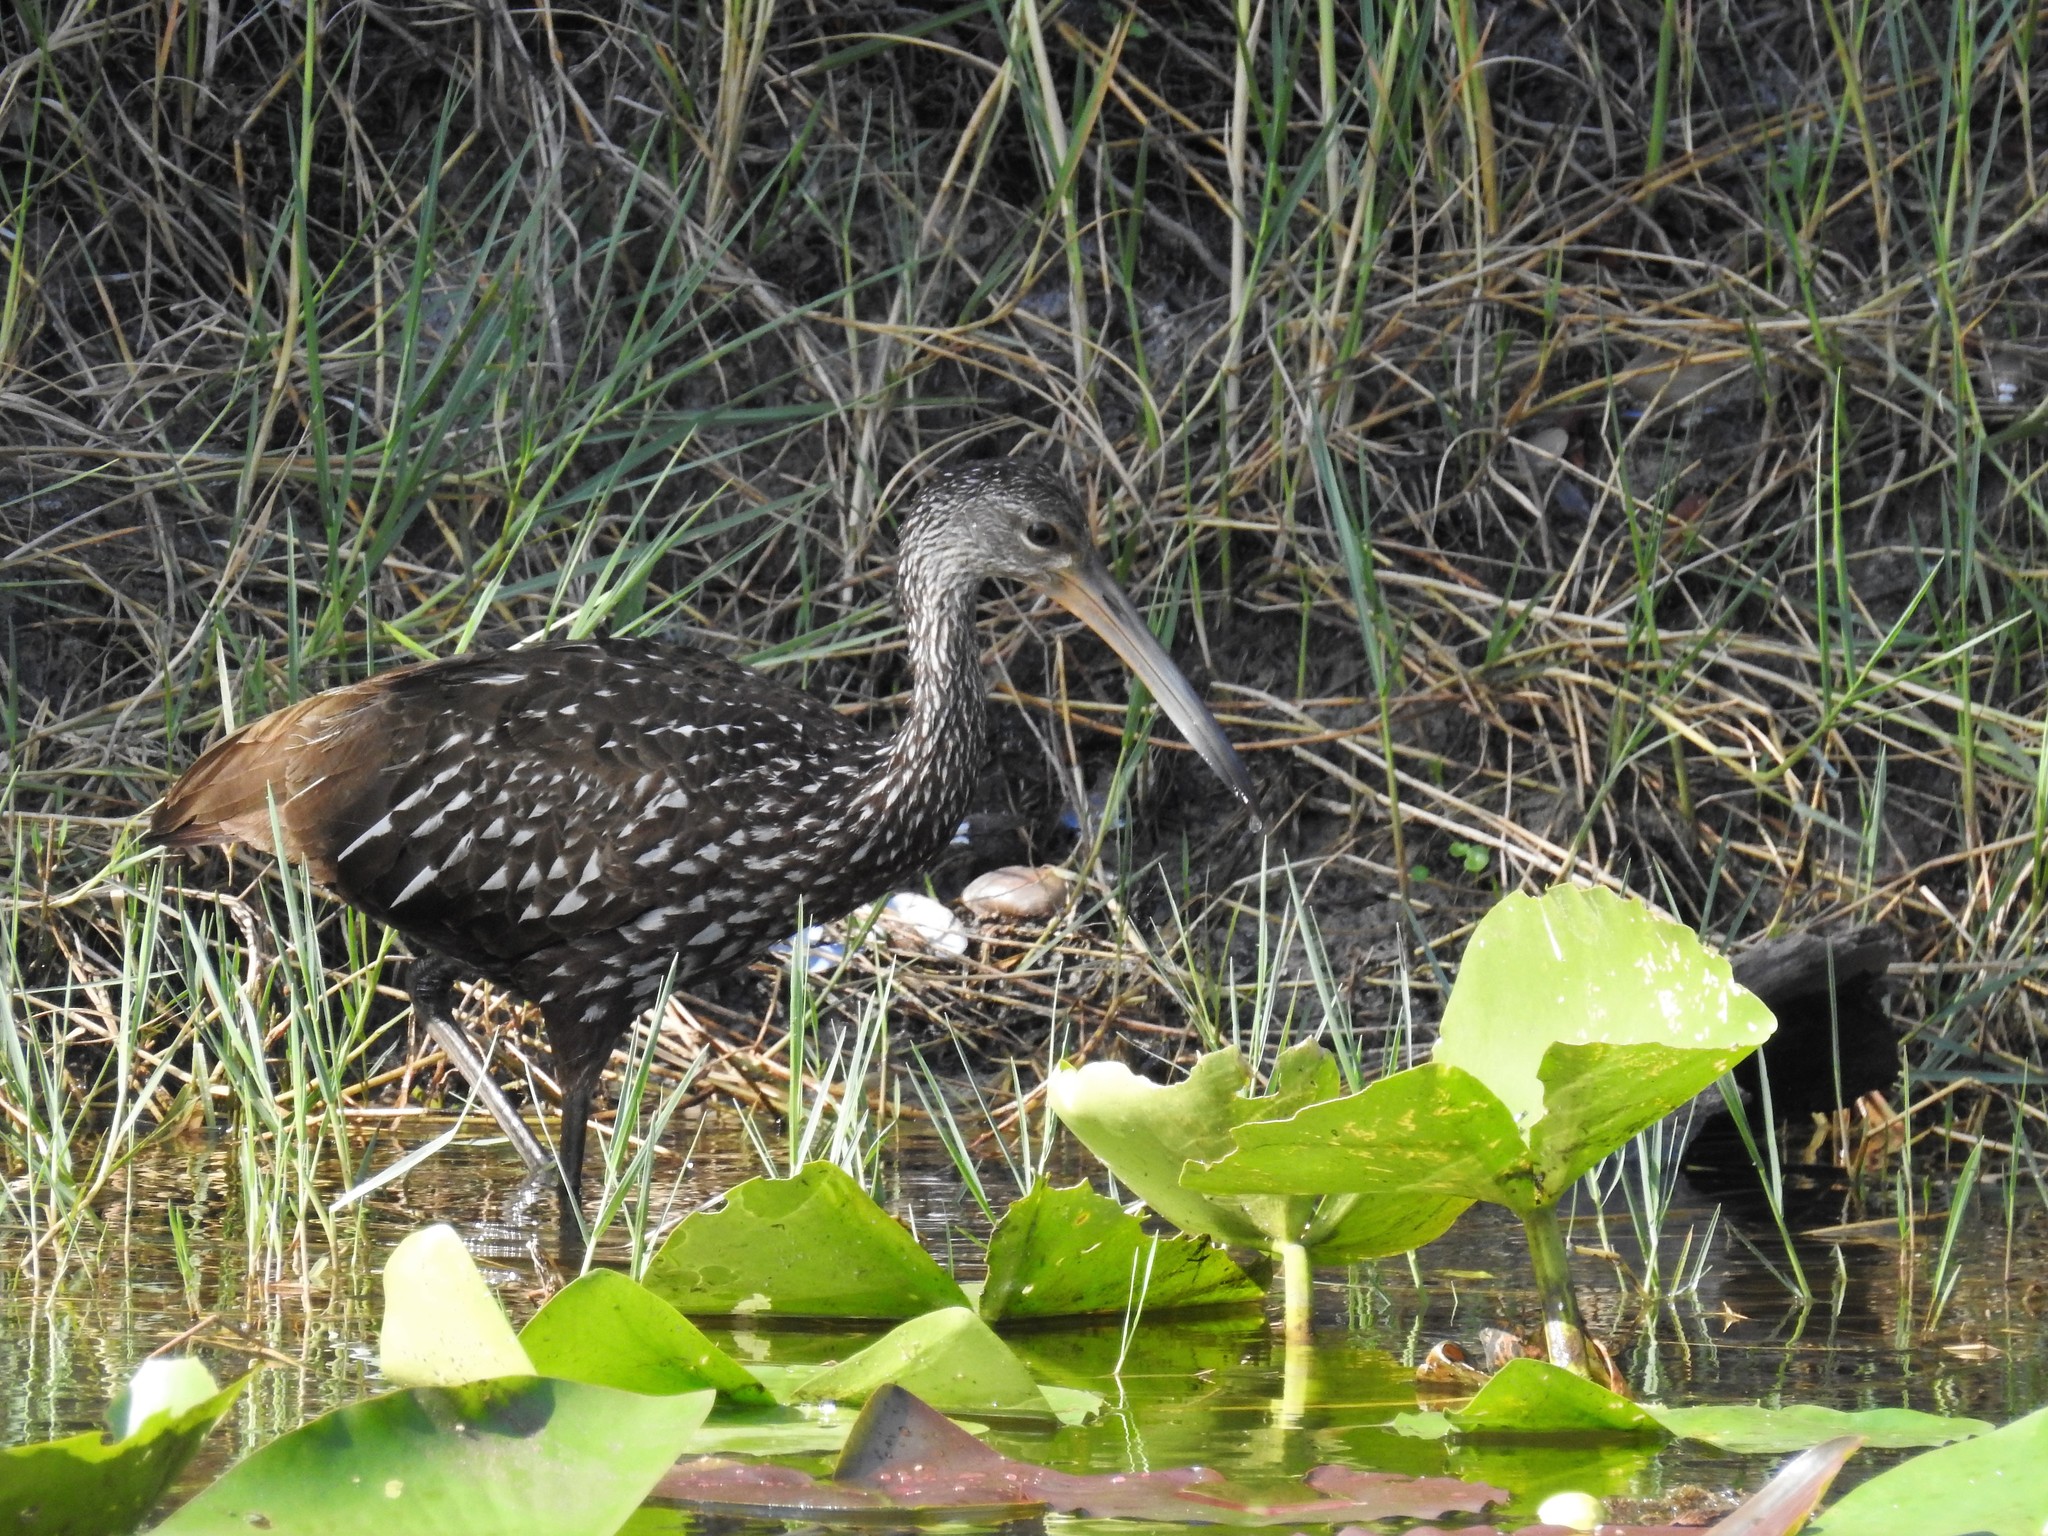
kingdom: Animalia
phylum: Chordata
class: Aves
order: Gruiformes
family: Aramidae
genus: Aramus
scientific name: Aramus guarauna
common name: Limpkin
